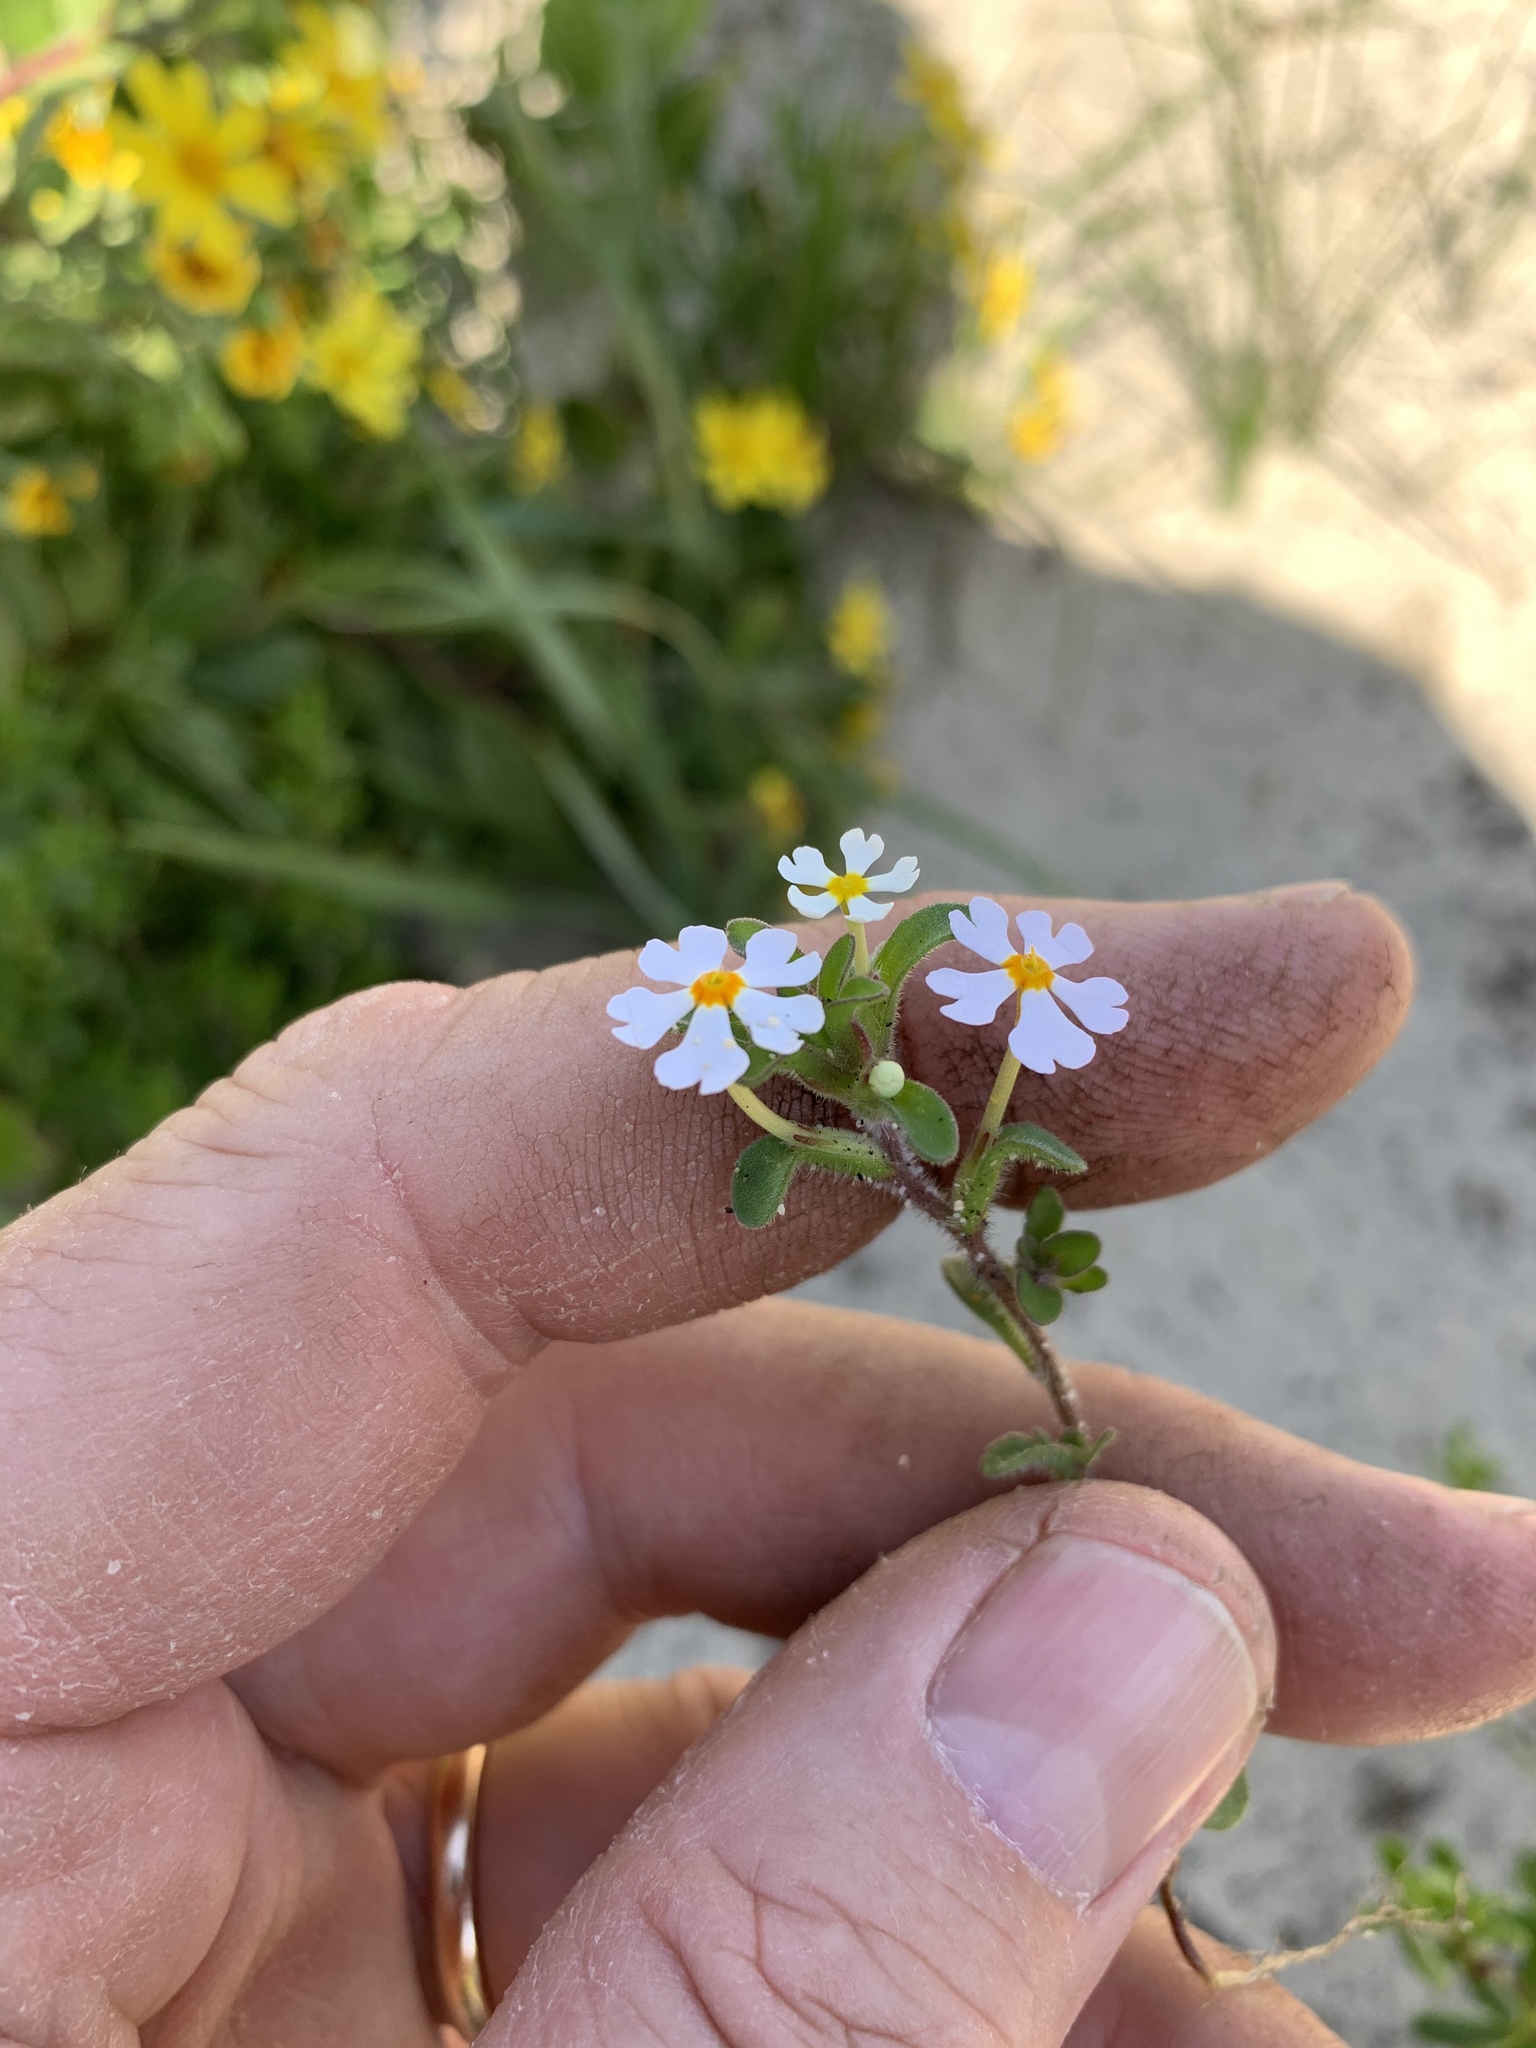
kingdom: Plantae
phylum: Tracheophyta
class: Magnoliopsida
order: Lamiales
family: Scrophulariaceae
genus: Zaluzianskya
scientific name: Zaluzianskya villosa
